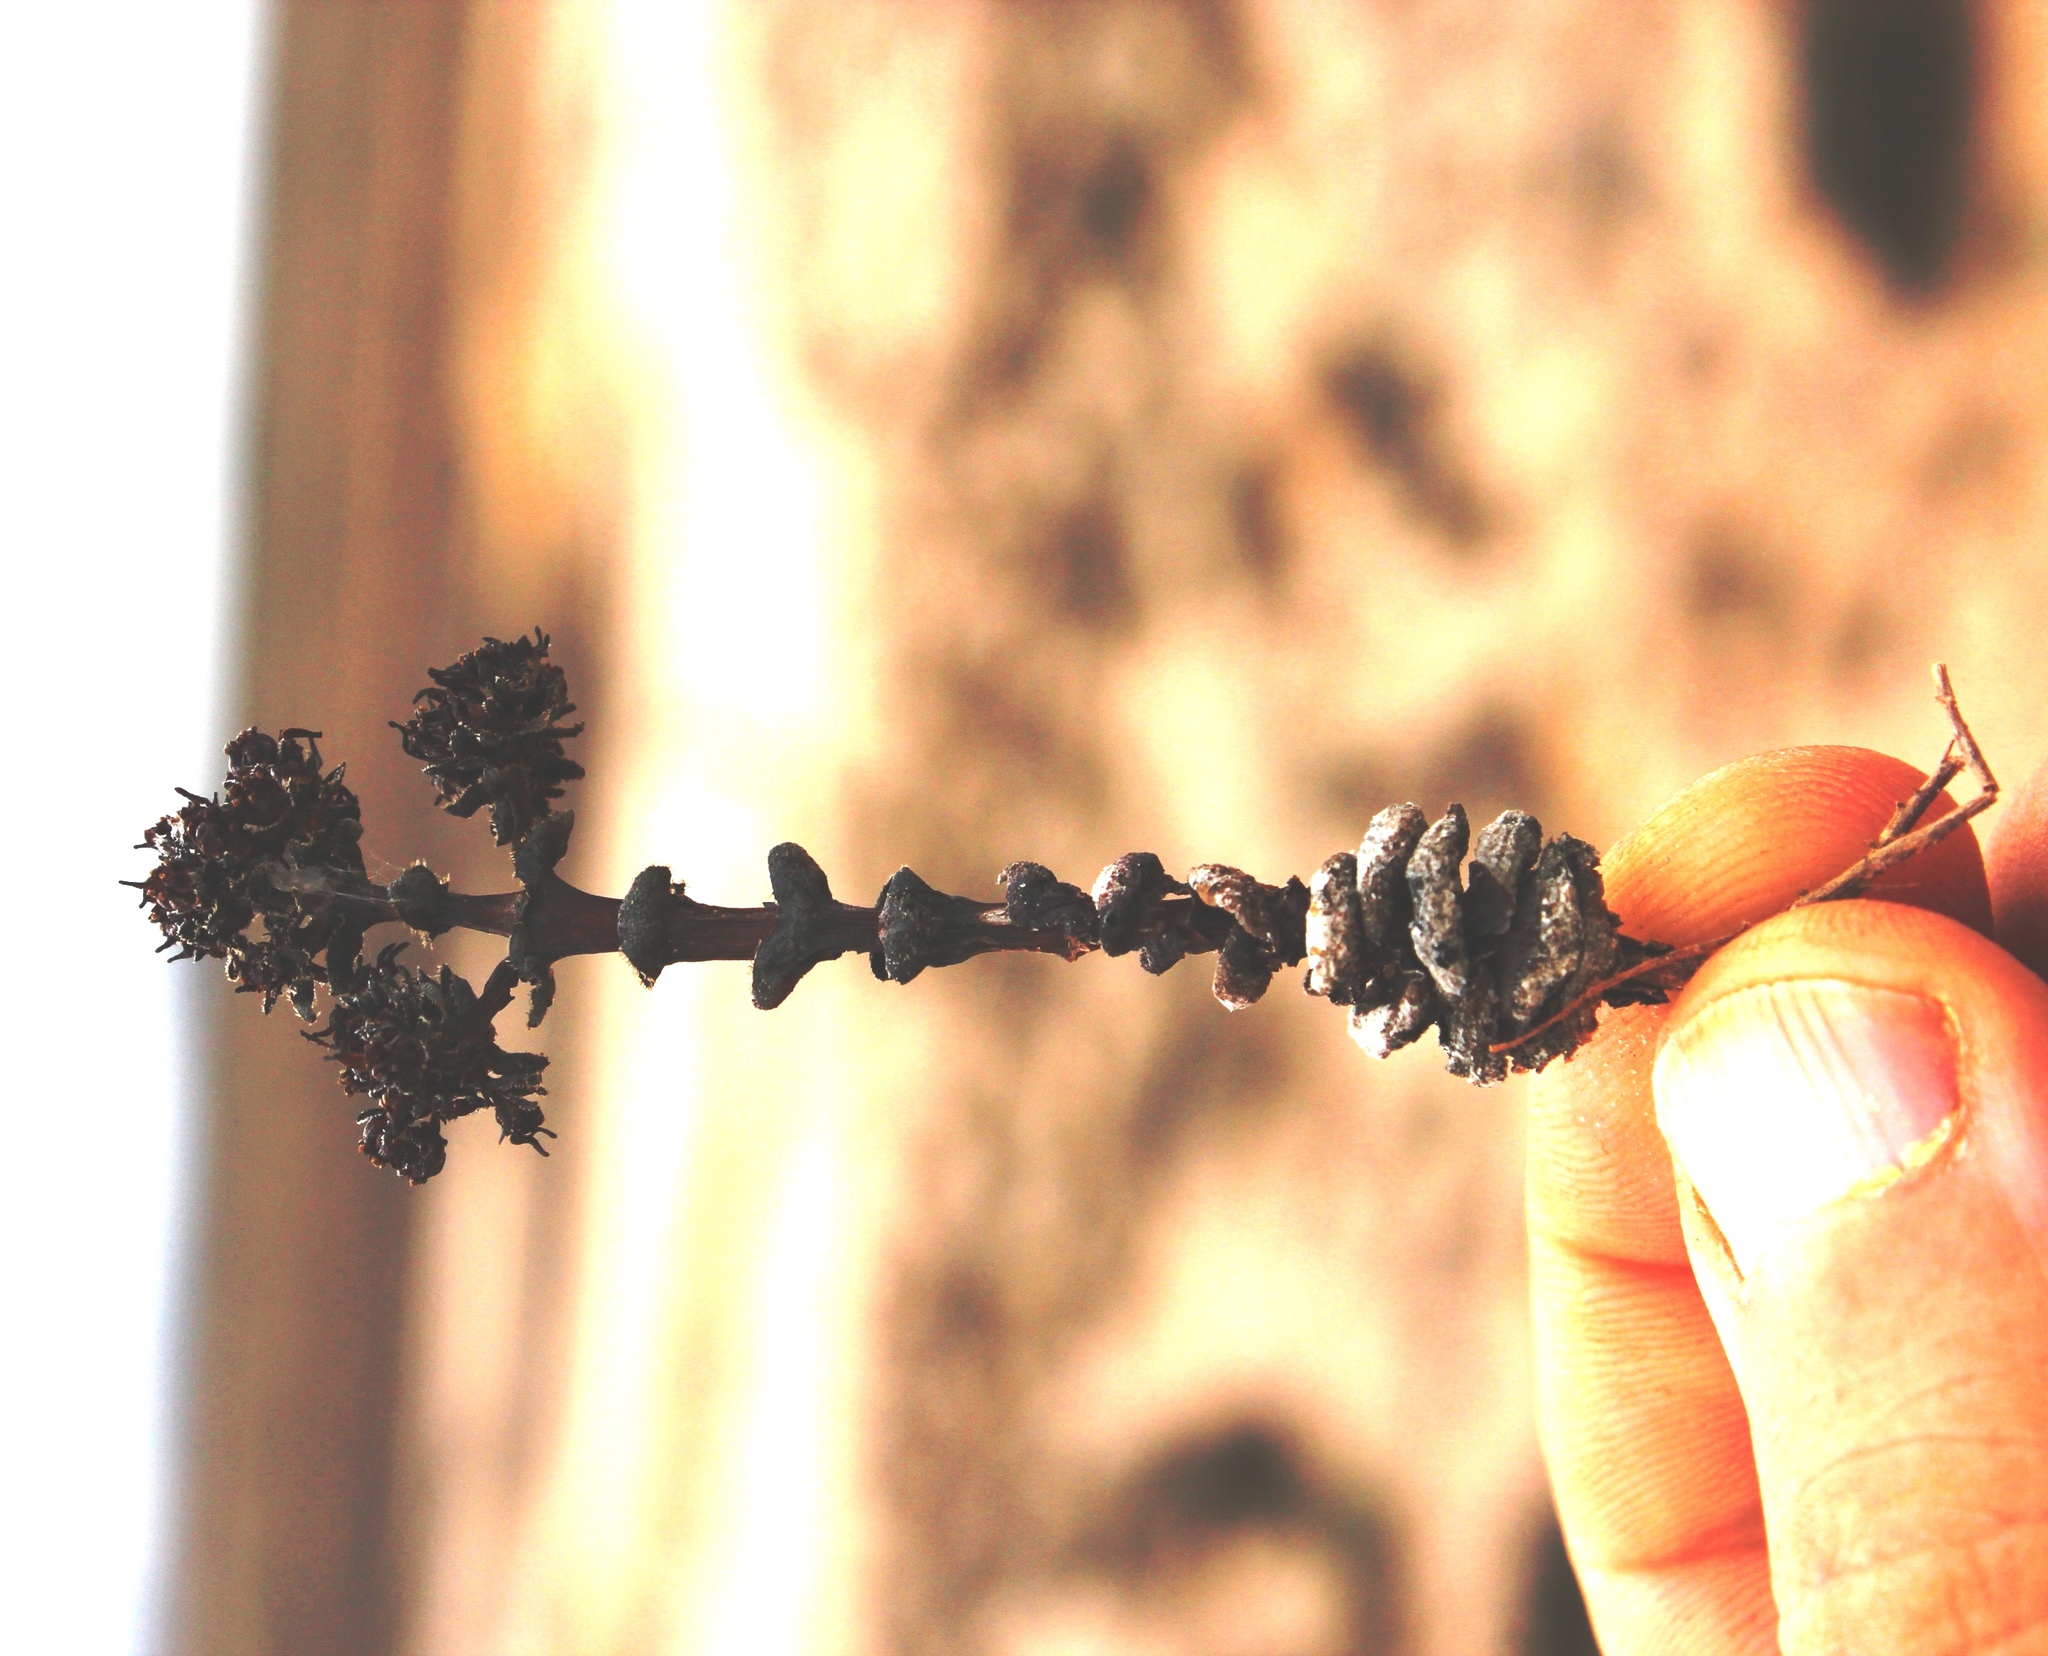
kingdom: Plantae
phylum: Tracheophyta
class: Magnoliopsida
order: Saxifragales
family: Crassulaceae
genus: Crassula
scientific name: Crassula columnaris
